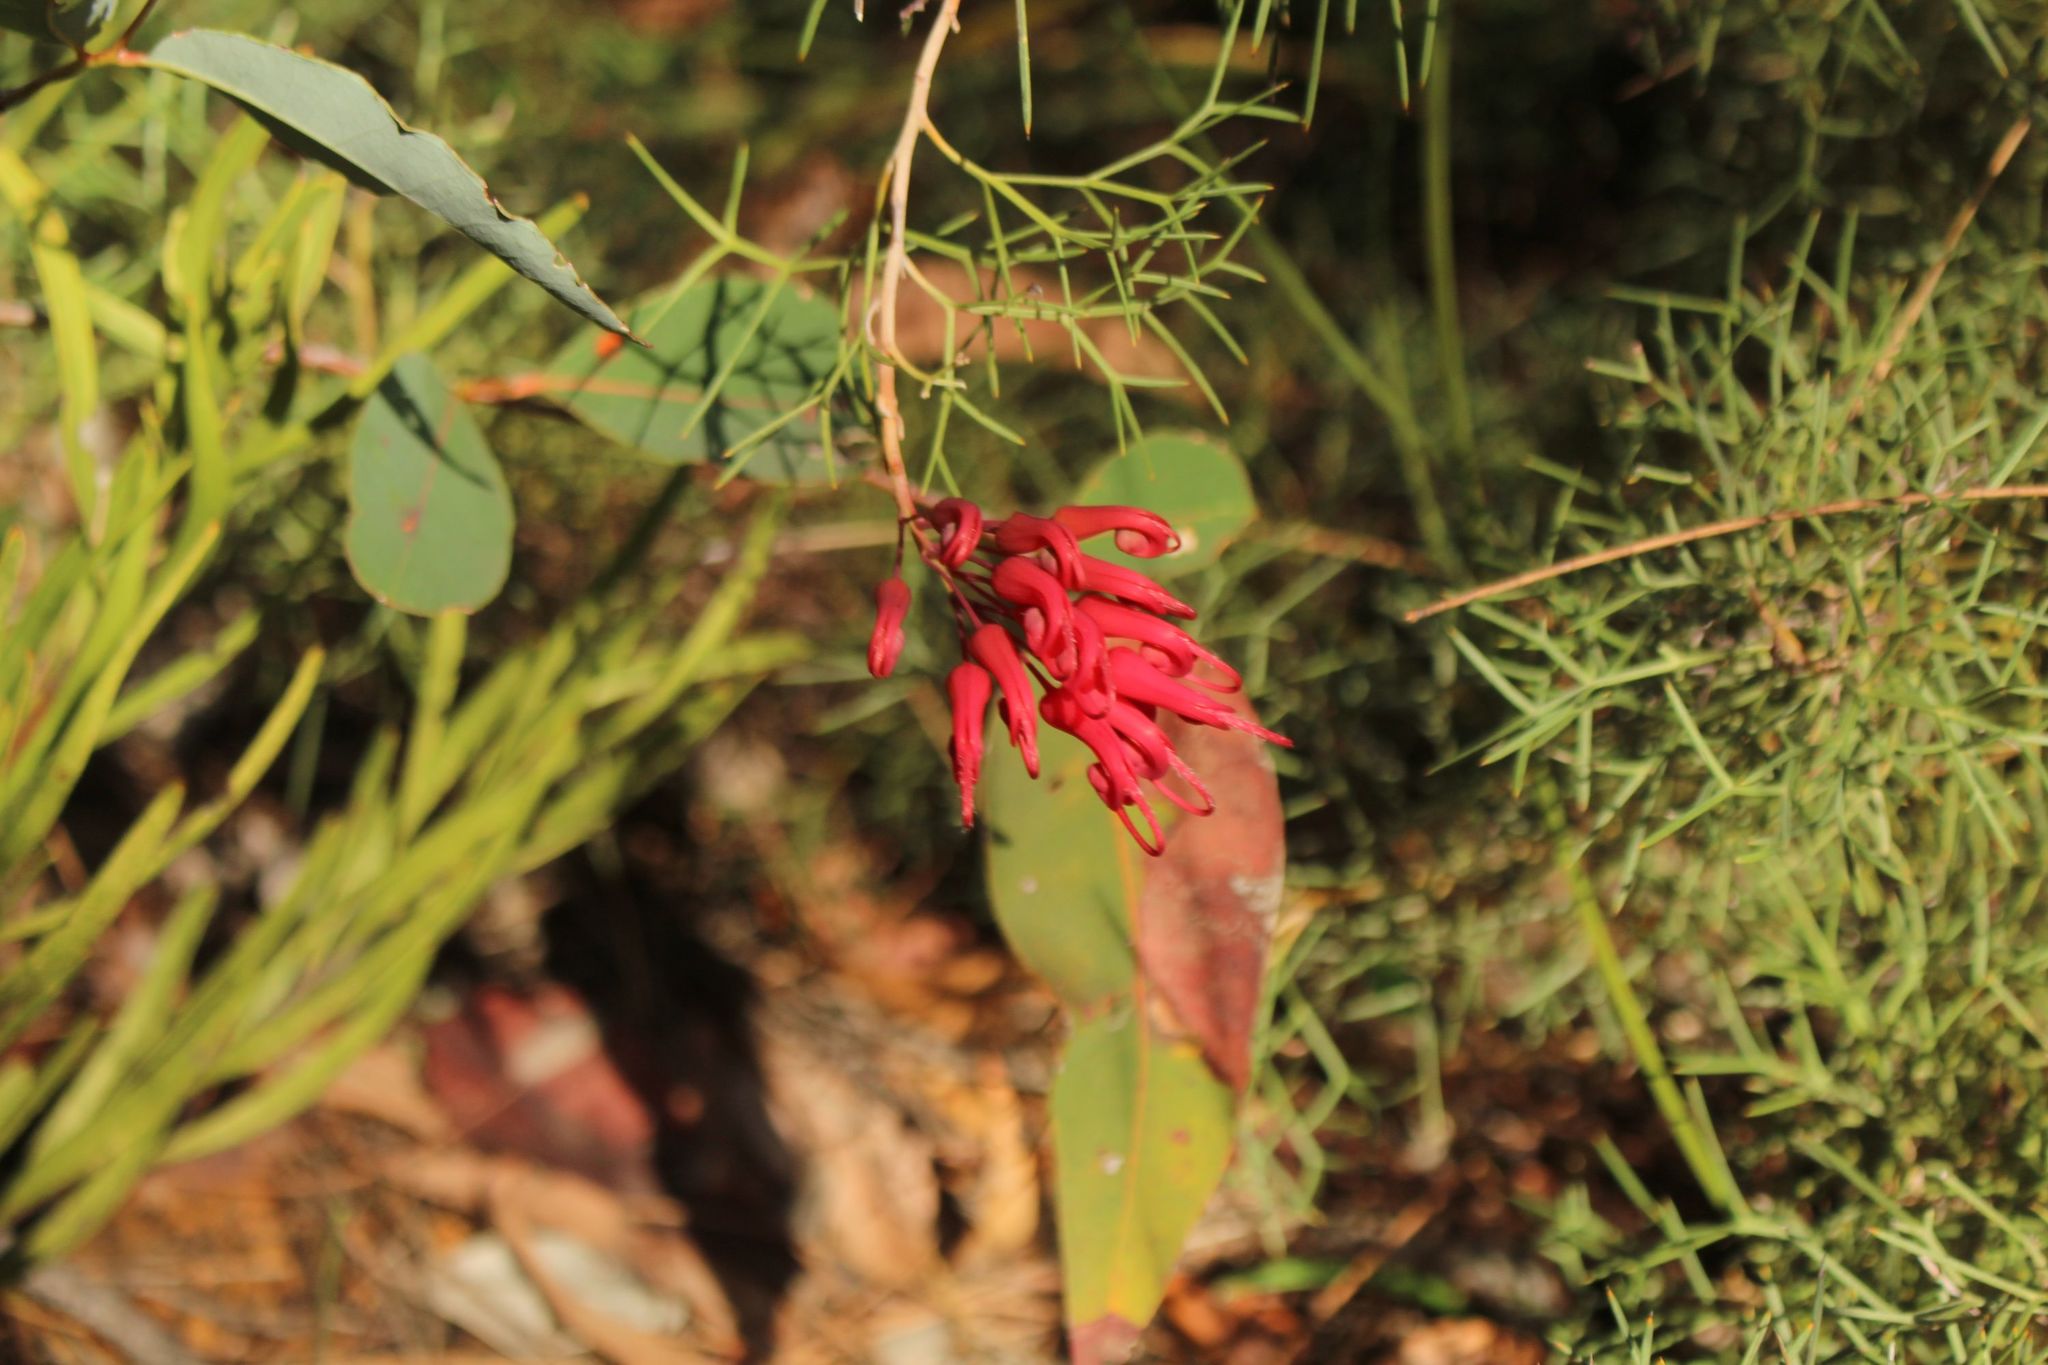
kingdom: Plantae
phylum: Tracheophyta
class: Magnoliopsida
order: Proteales
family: Proteaceae
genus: Grevillea
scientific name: Grevillea wilsonii
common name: Fire-wheel
